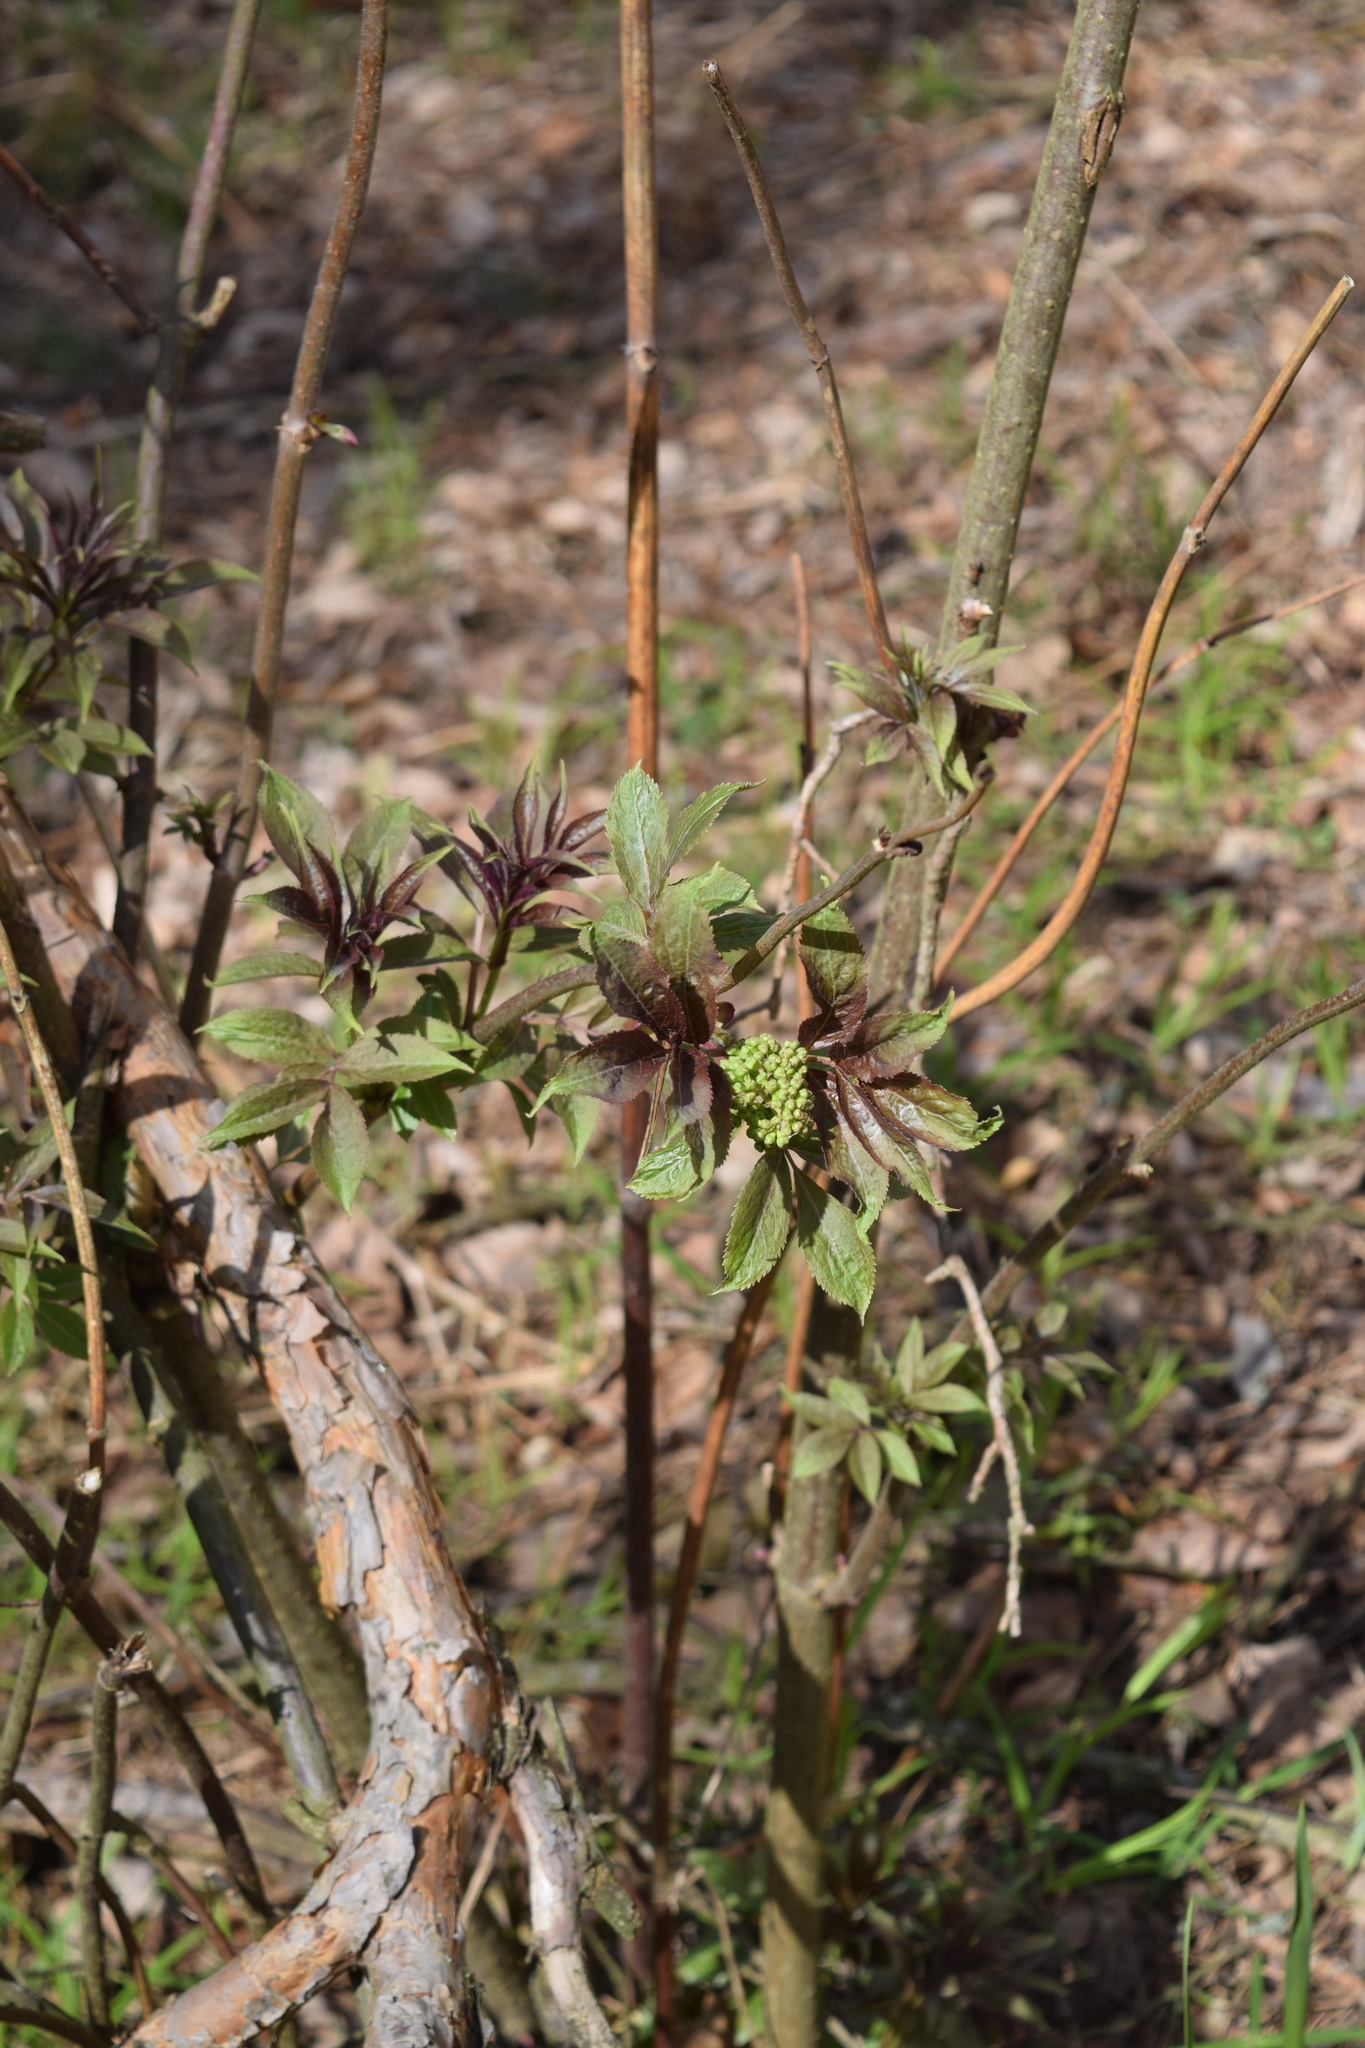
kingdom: Plantae
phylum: Tracheophyta
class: Magnoliopsida
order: Dipsacales
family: Viburnaceae
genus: Sambucus
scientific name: Sambucus racemosa
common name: Red-berried elder
